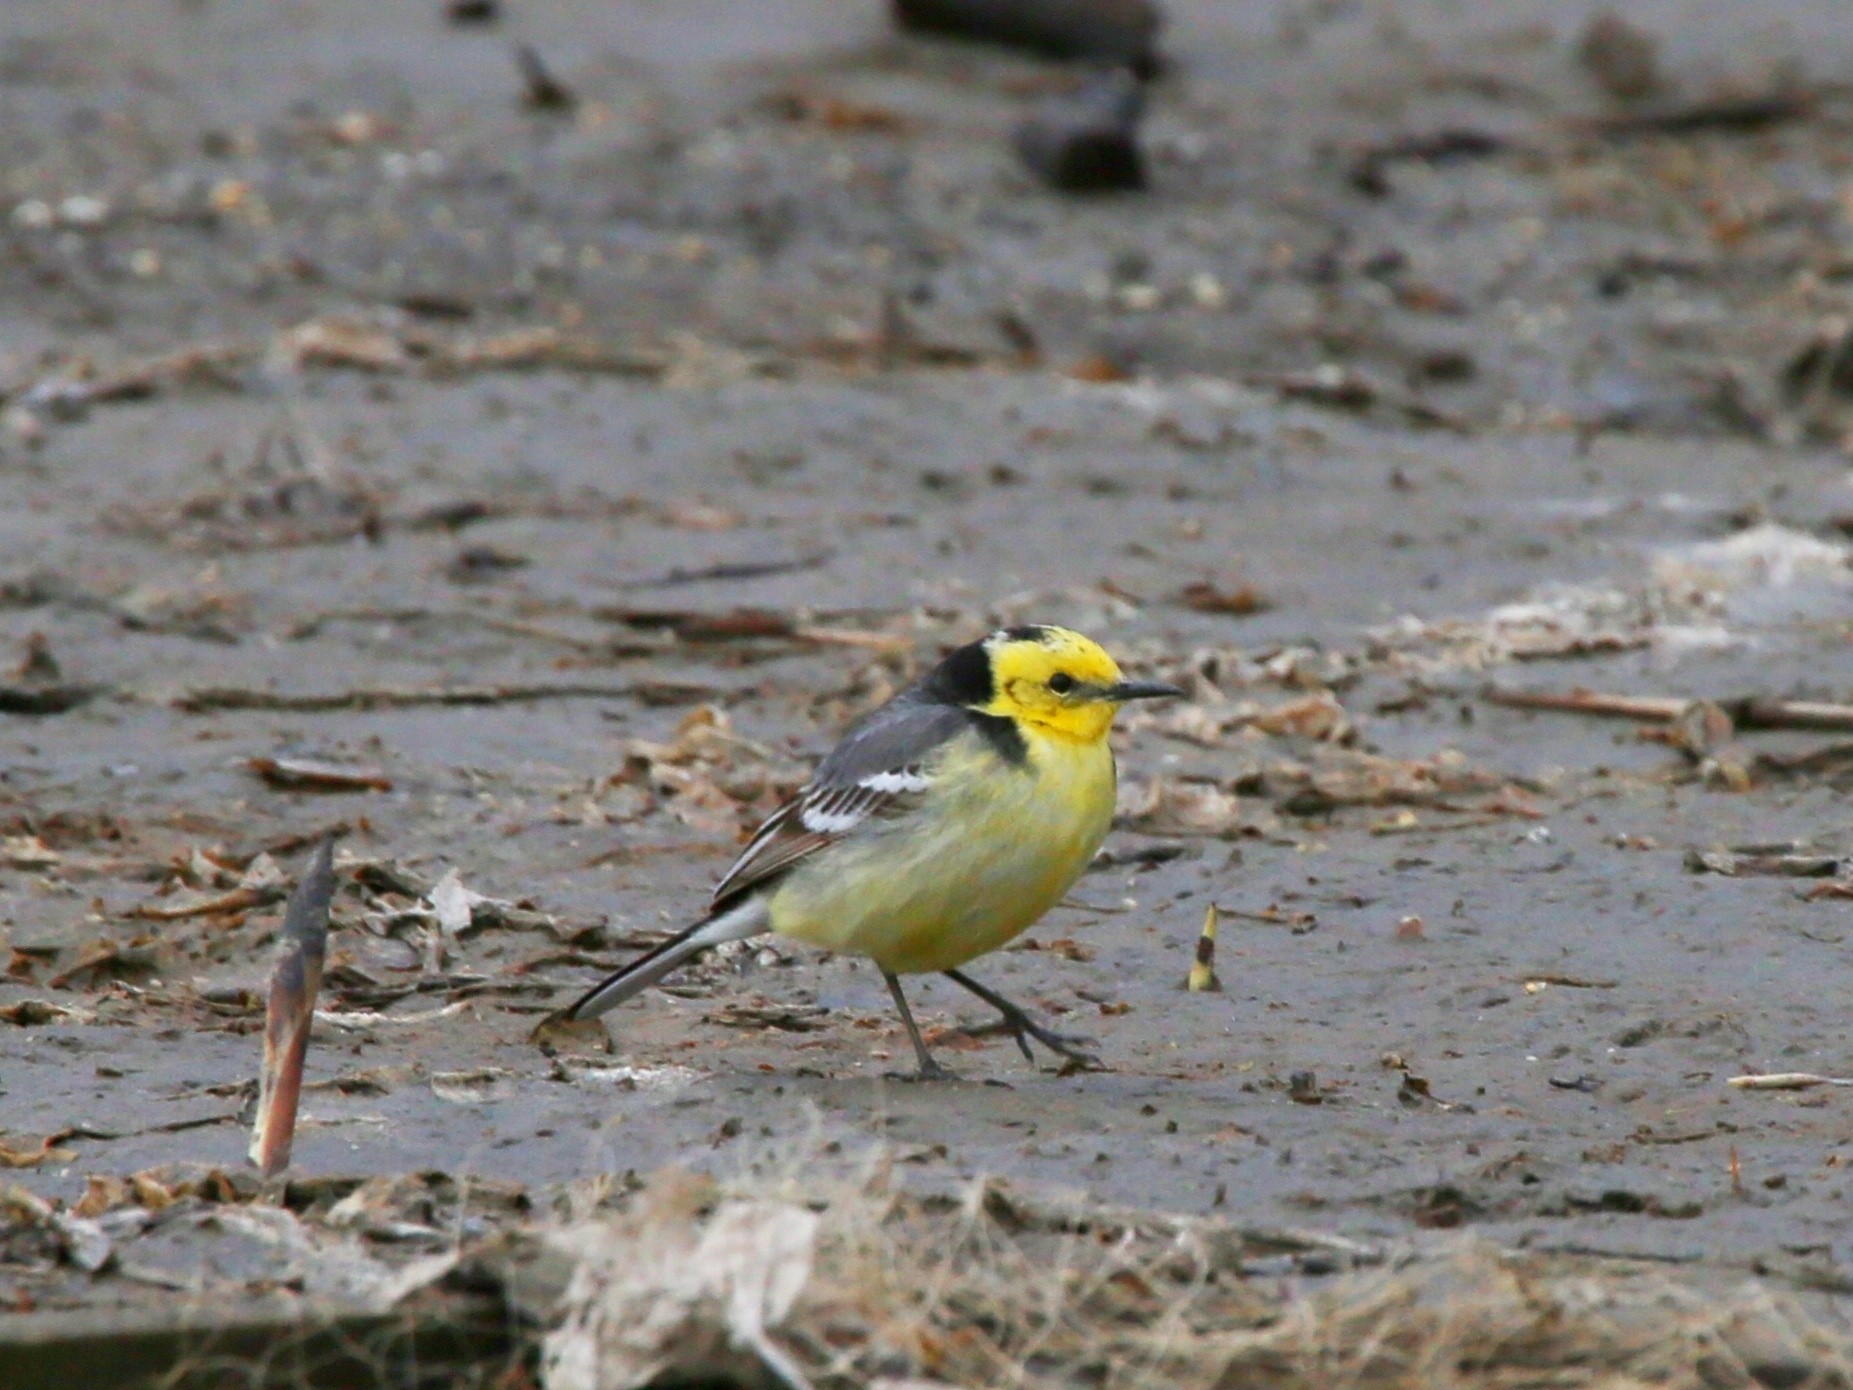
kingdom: Animalia
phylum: Chordata
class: Aves
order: Passeriformes
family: Motacillidae
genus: Motacilla
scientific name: Motacilla citreola
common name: Citrine wagtail
